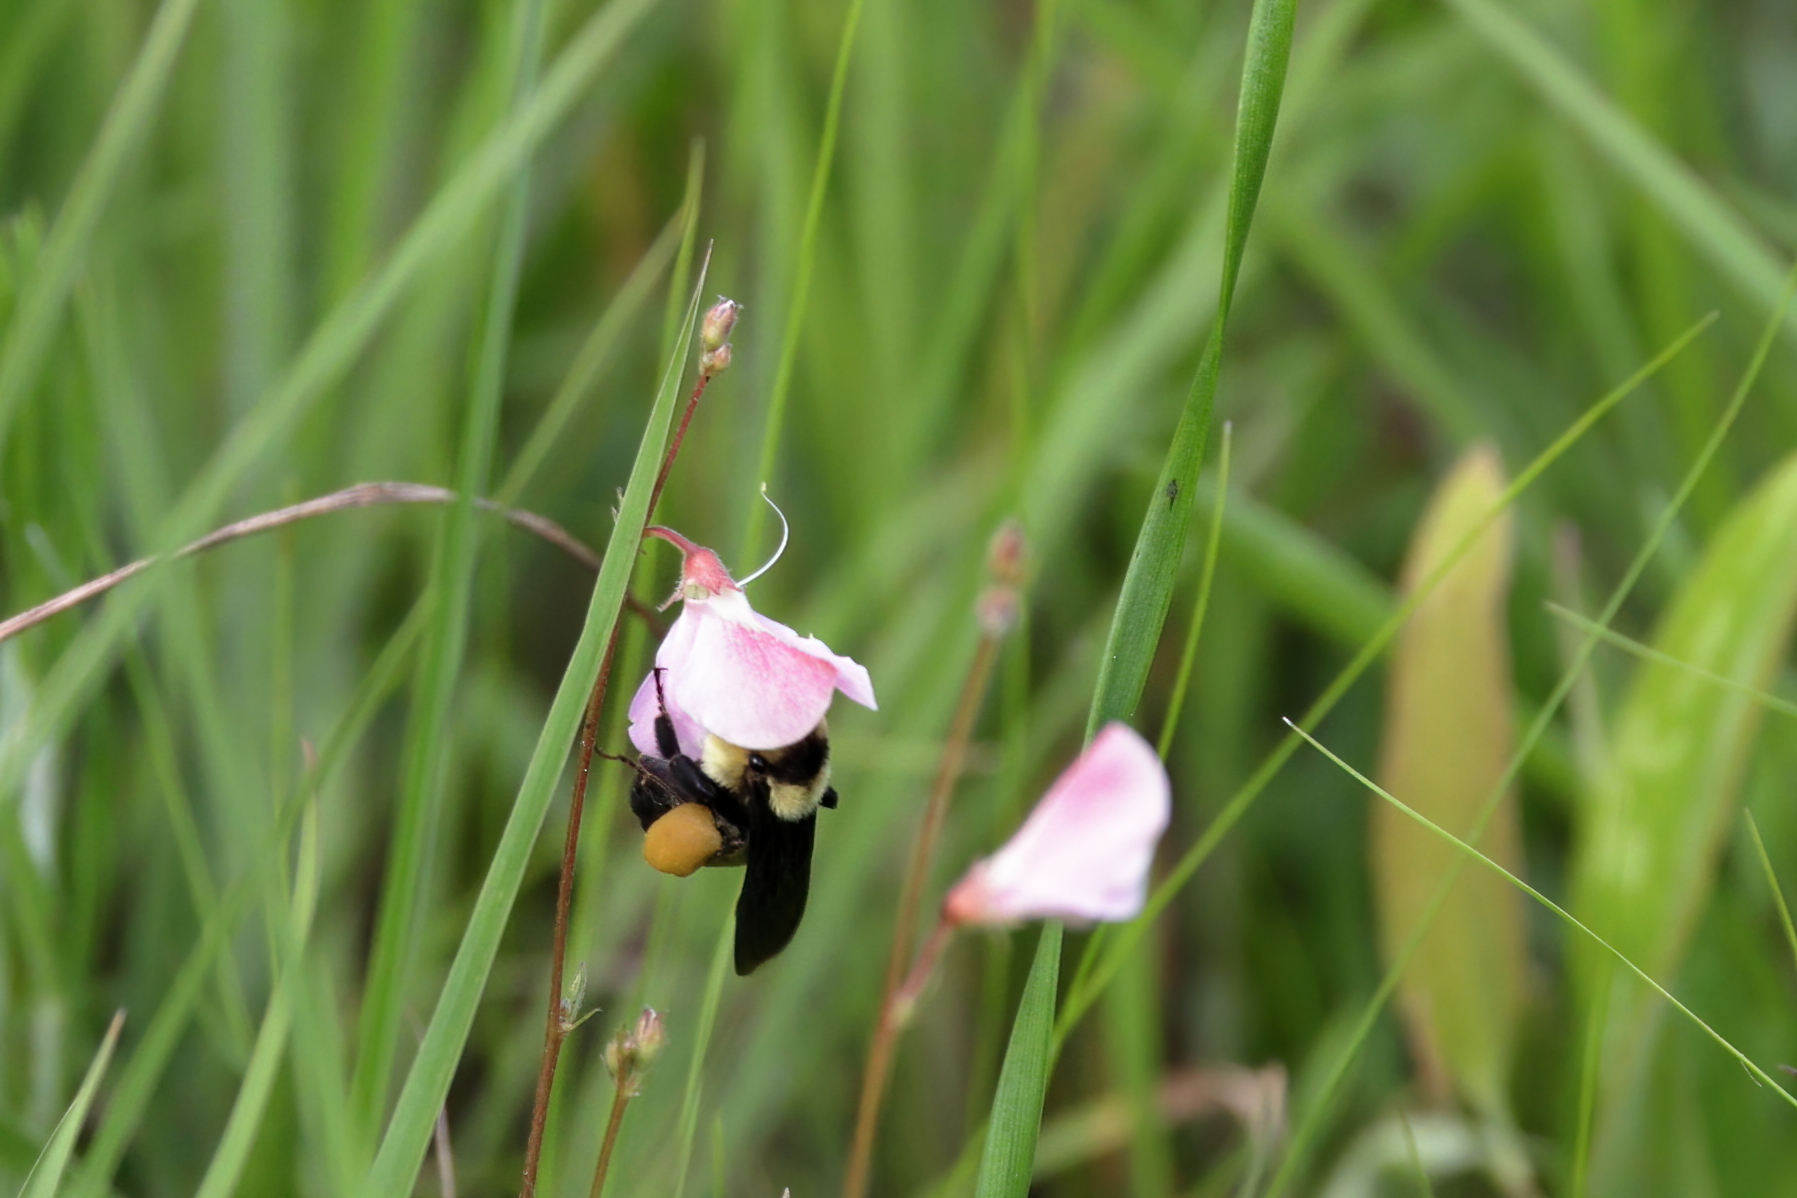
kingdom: Animalia
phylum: Arthropoda
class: Insecta
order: Hymenoptera
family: Apidae
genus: Bombus
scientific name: Bombus fraternus
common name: Southern plains bumble bee
